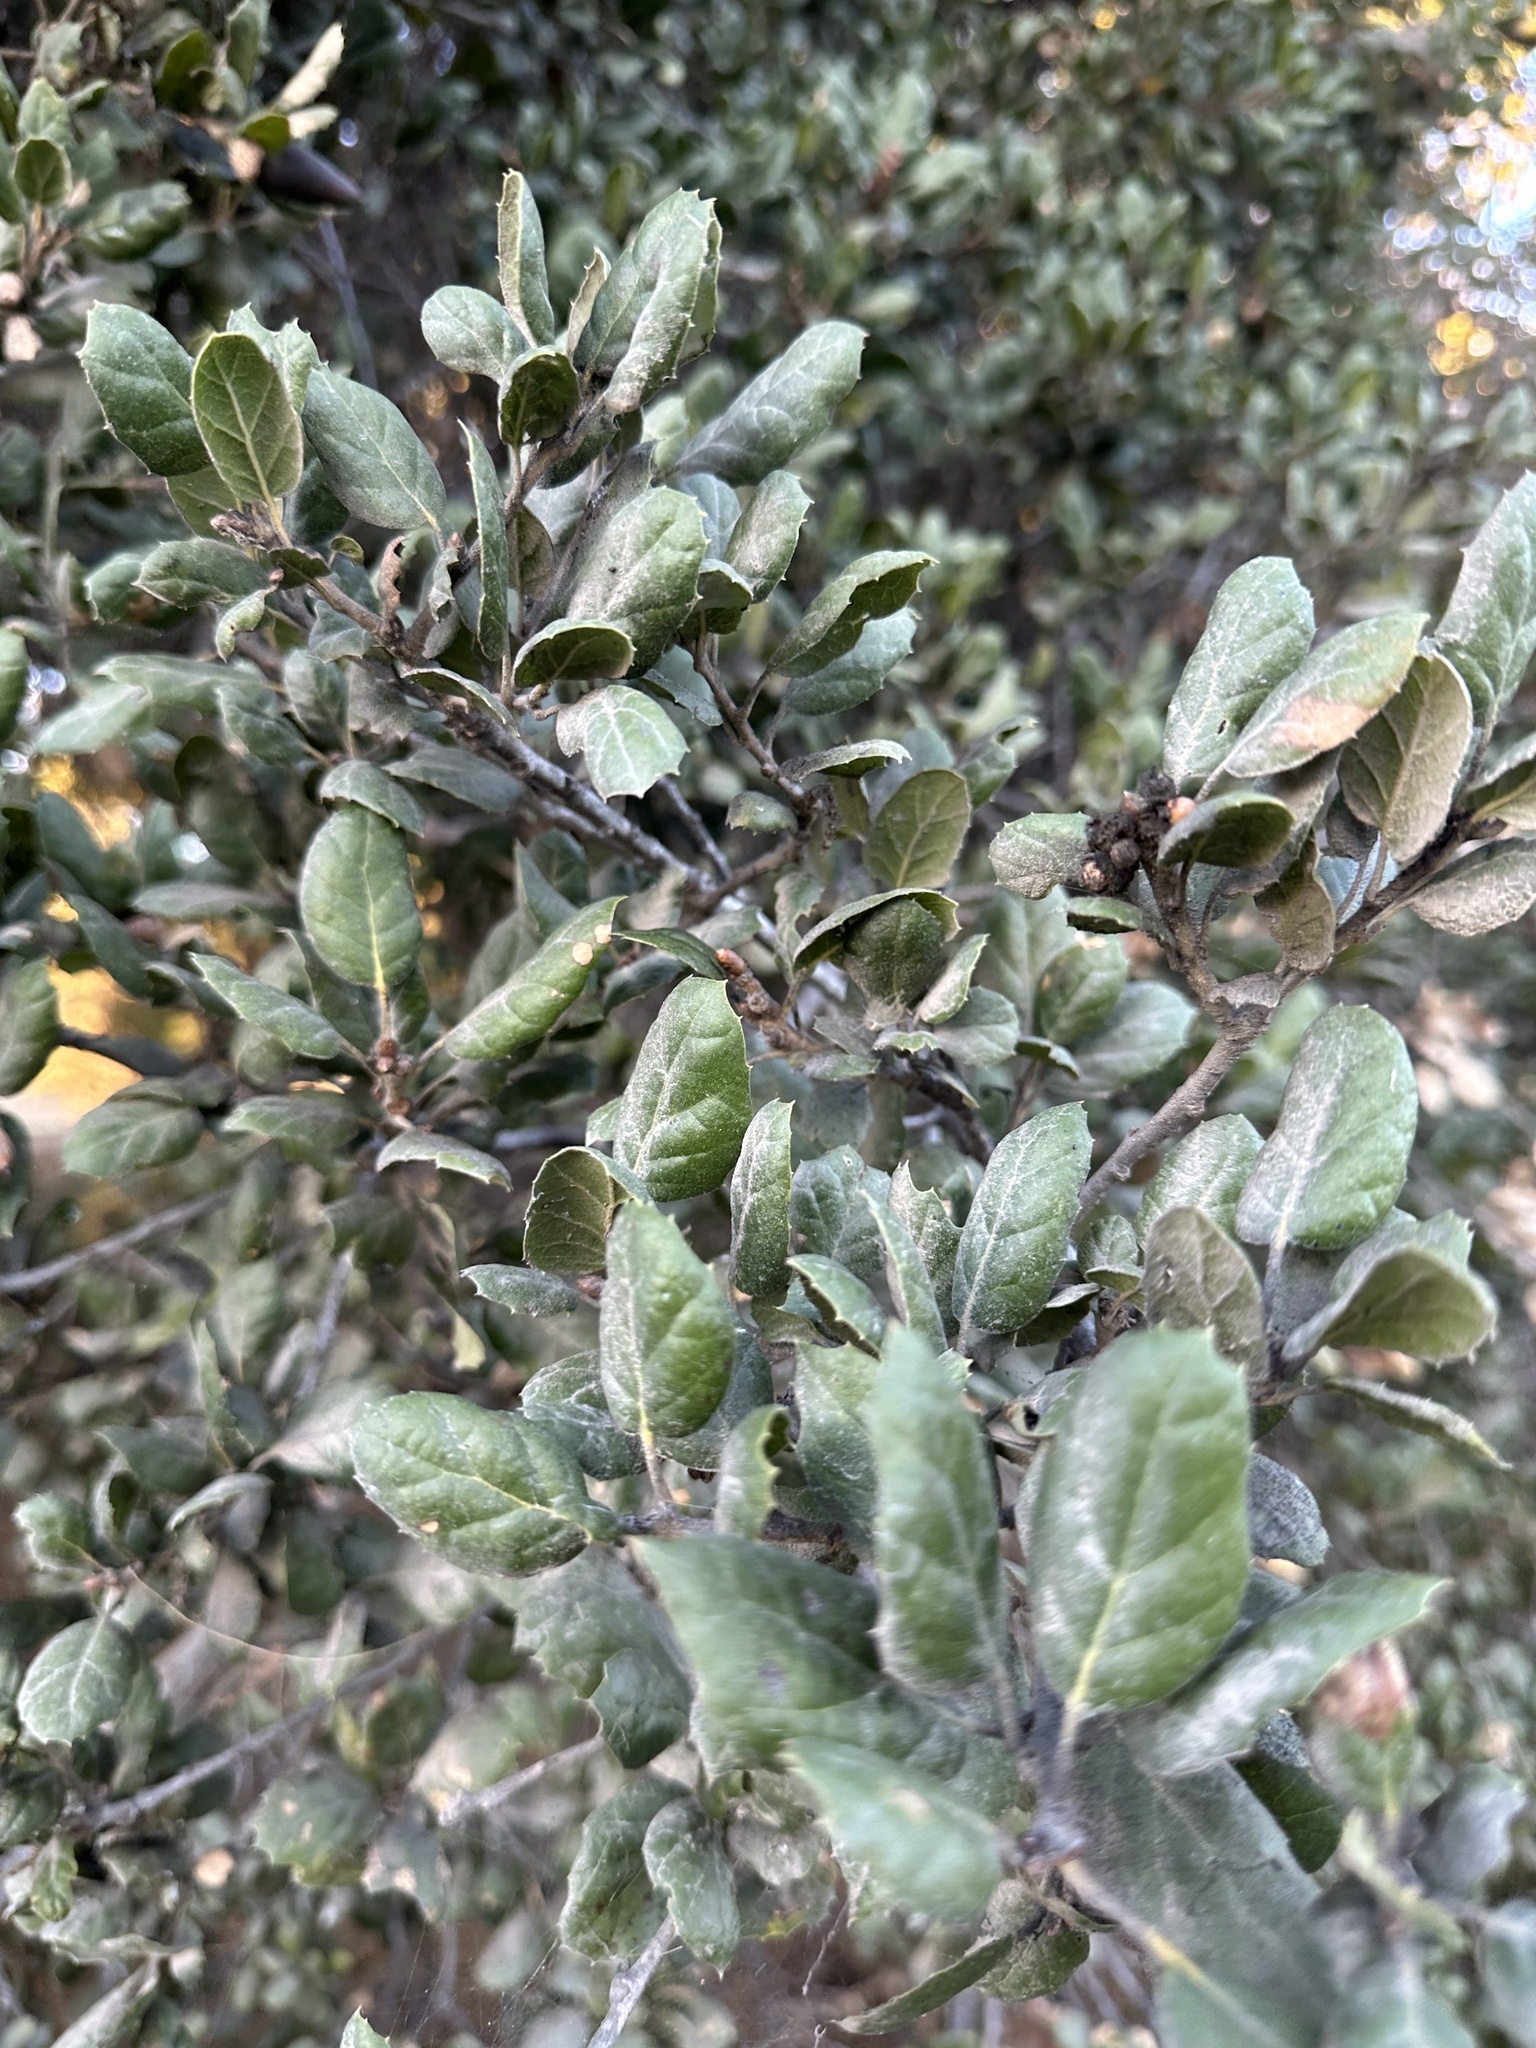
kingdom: Plantae
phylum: Tracheophyta
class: Magnoliopsida
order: Fagales
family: Fagaceae
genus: Quercus
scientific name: Quercus agrifolia
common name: California live oak
